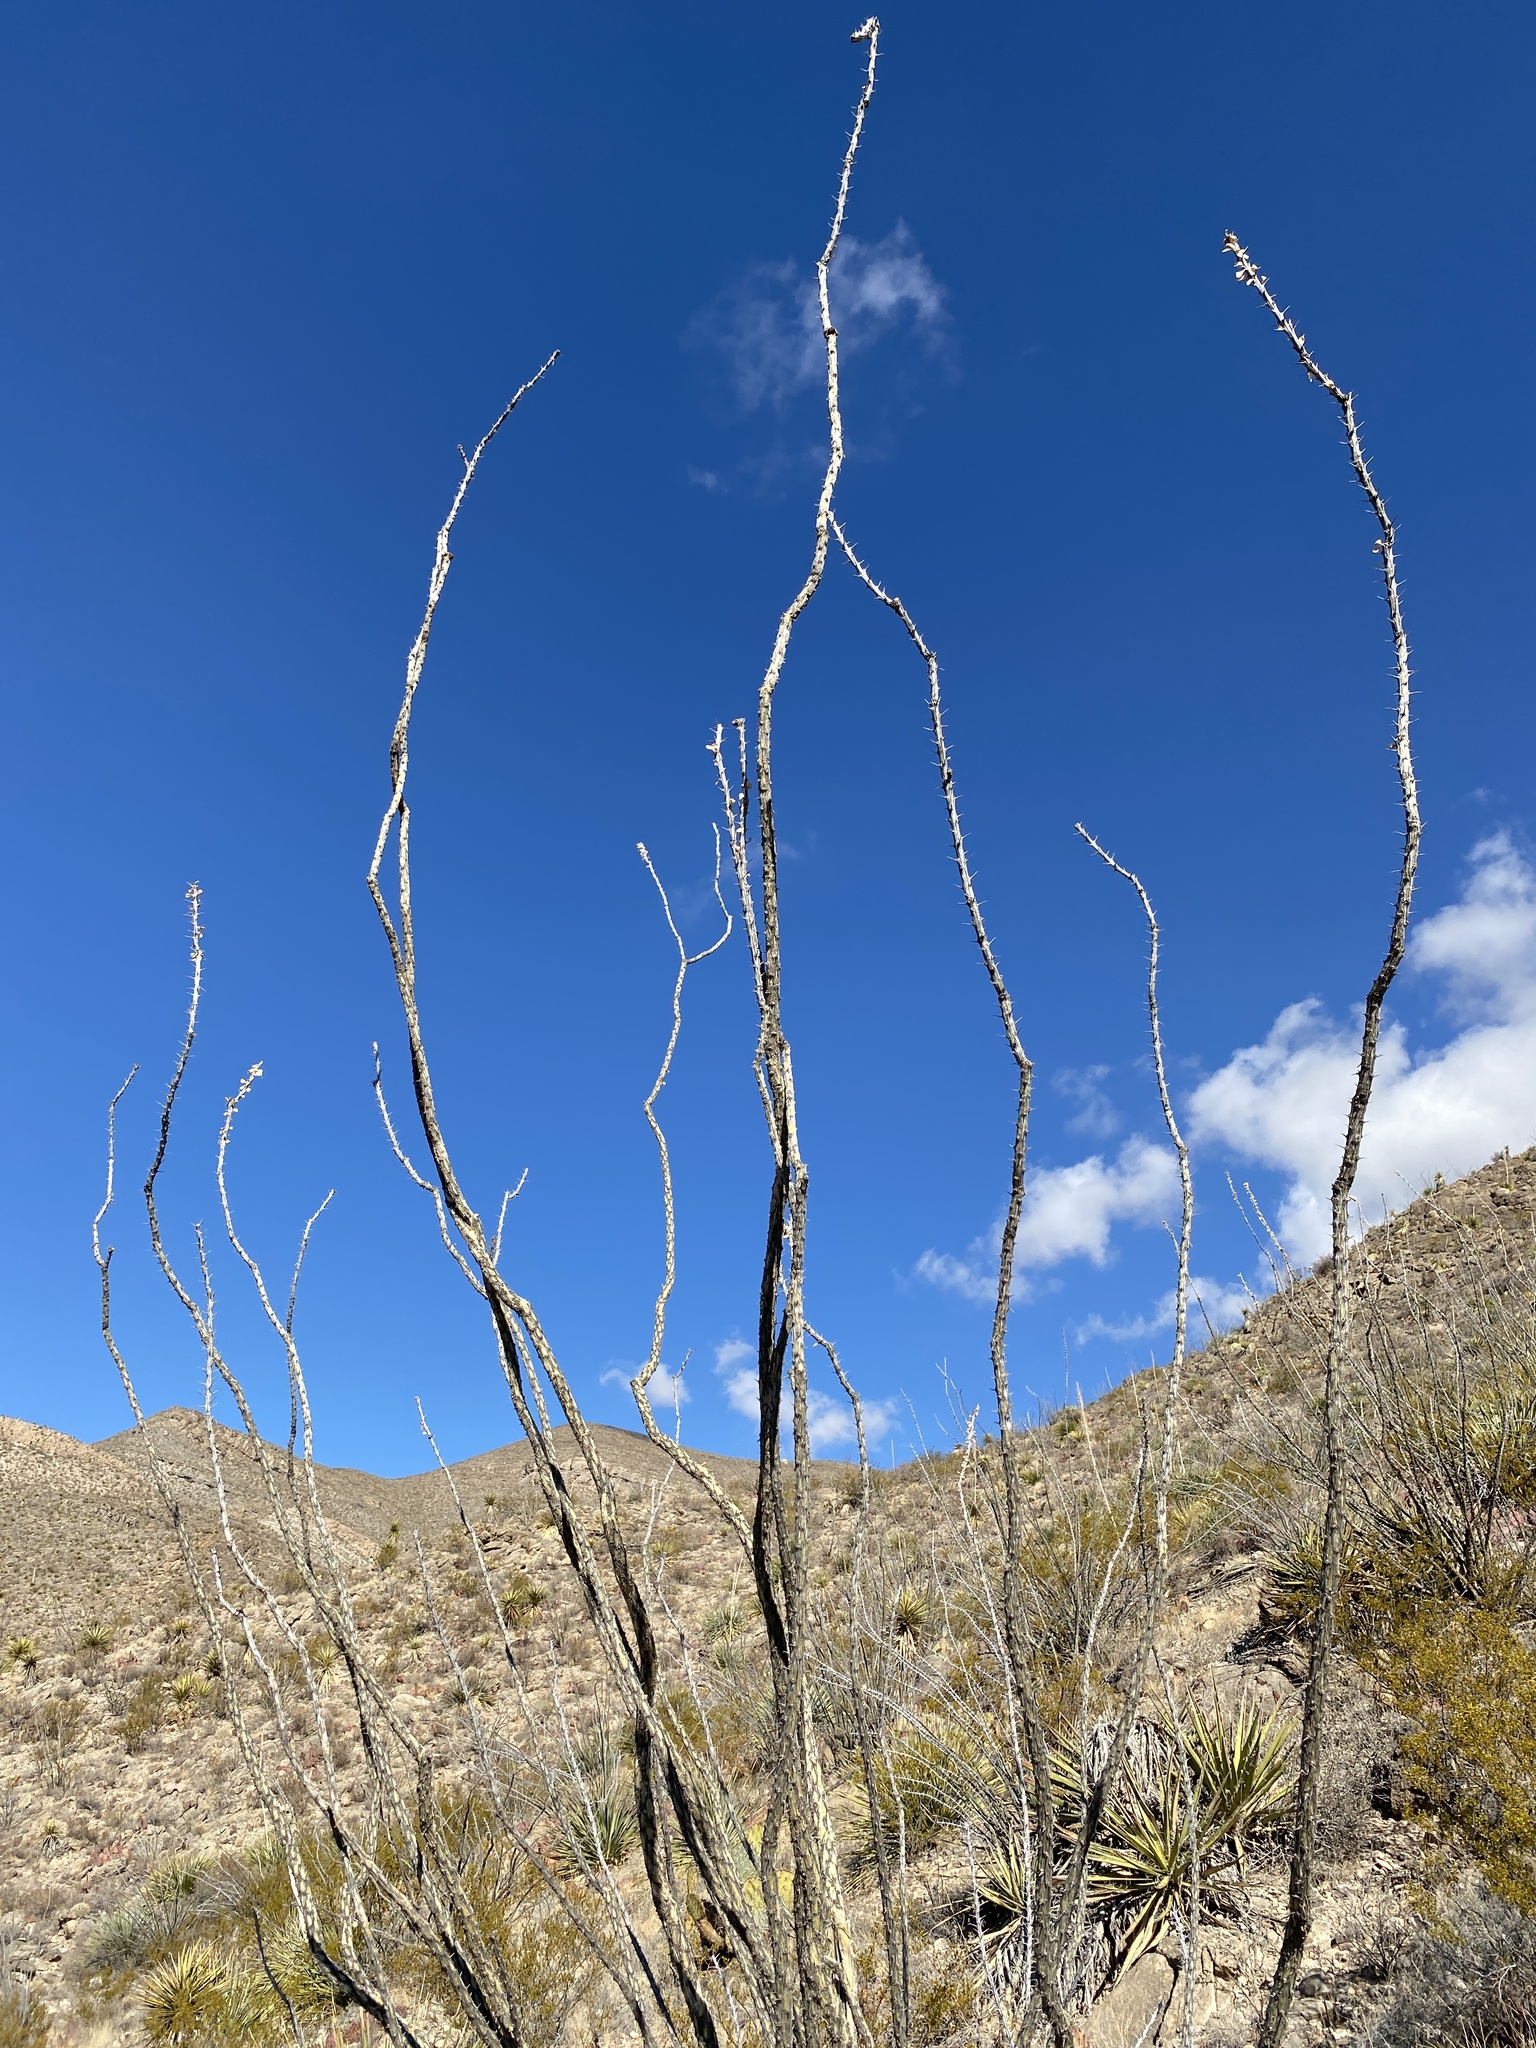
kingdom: Plantae
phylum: Tracheophyta
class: Magnoliopsida
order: Ericales
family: Fouquieriaceae
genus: Fouquieria
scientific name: Fouquieria splendens
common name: Vine-cactus
